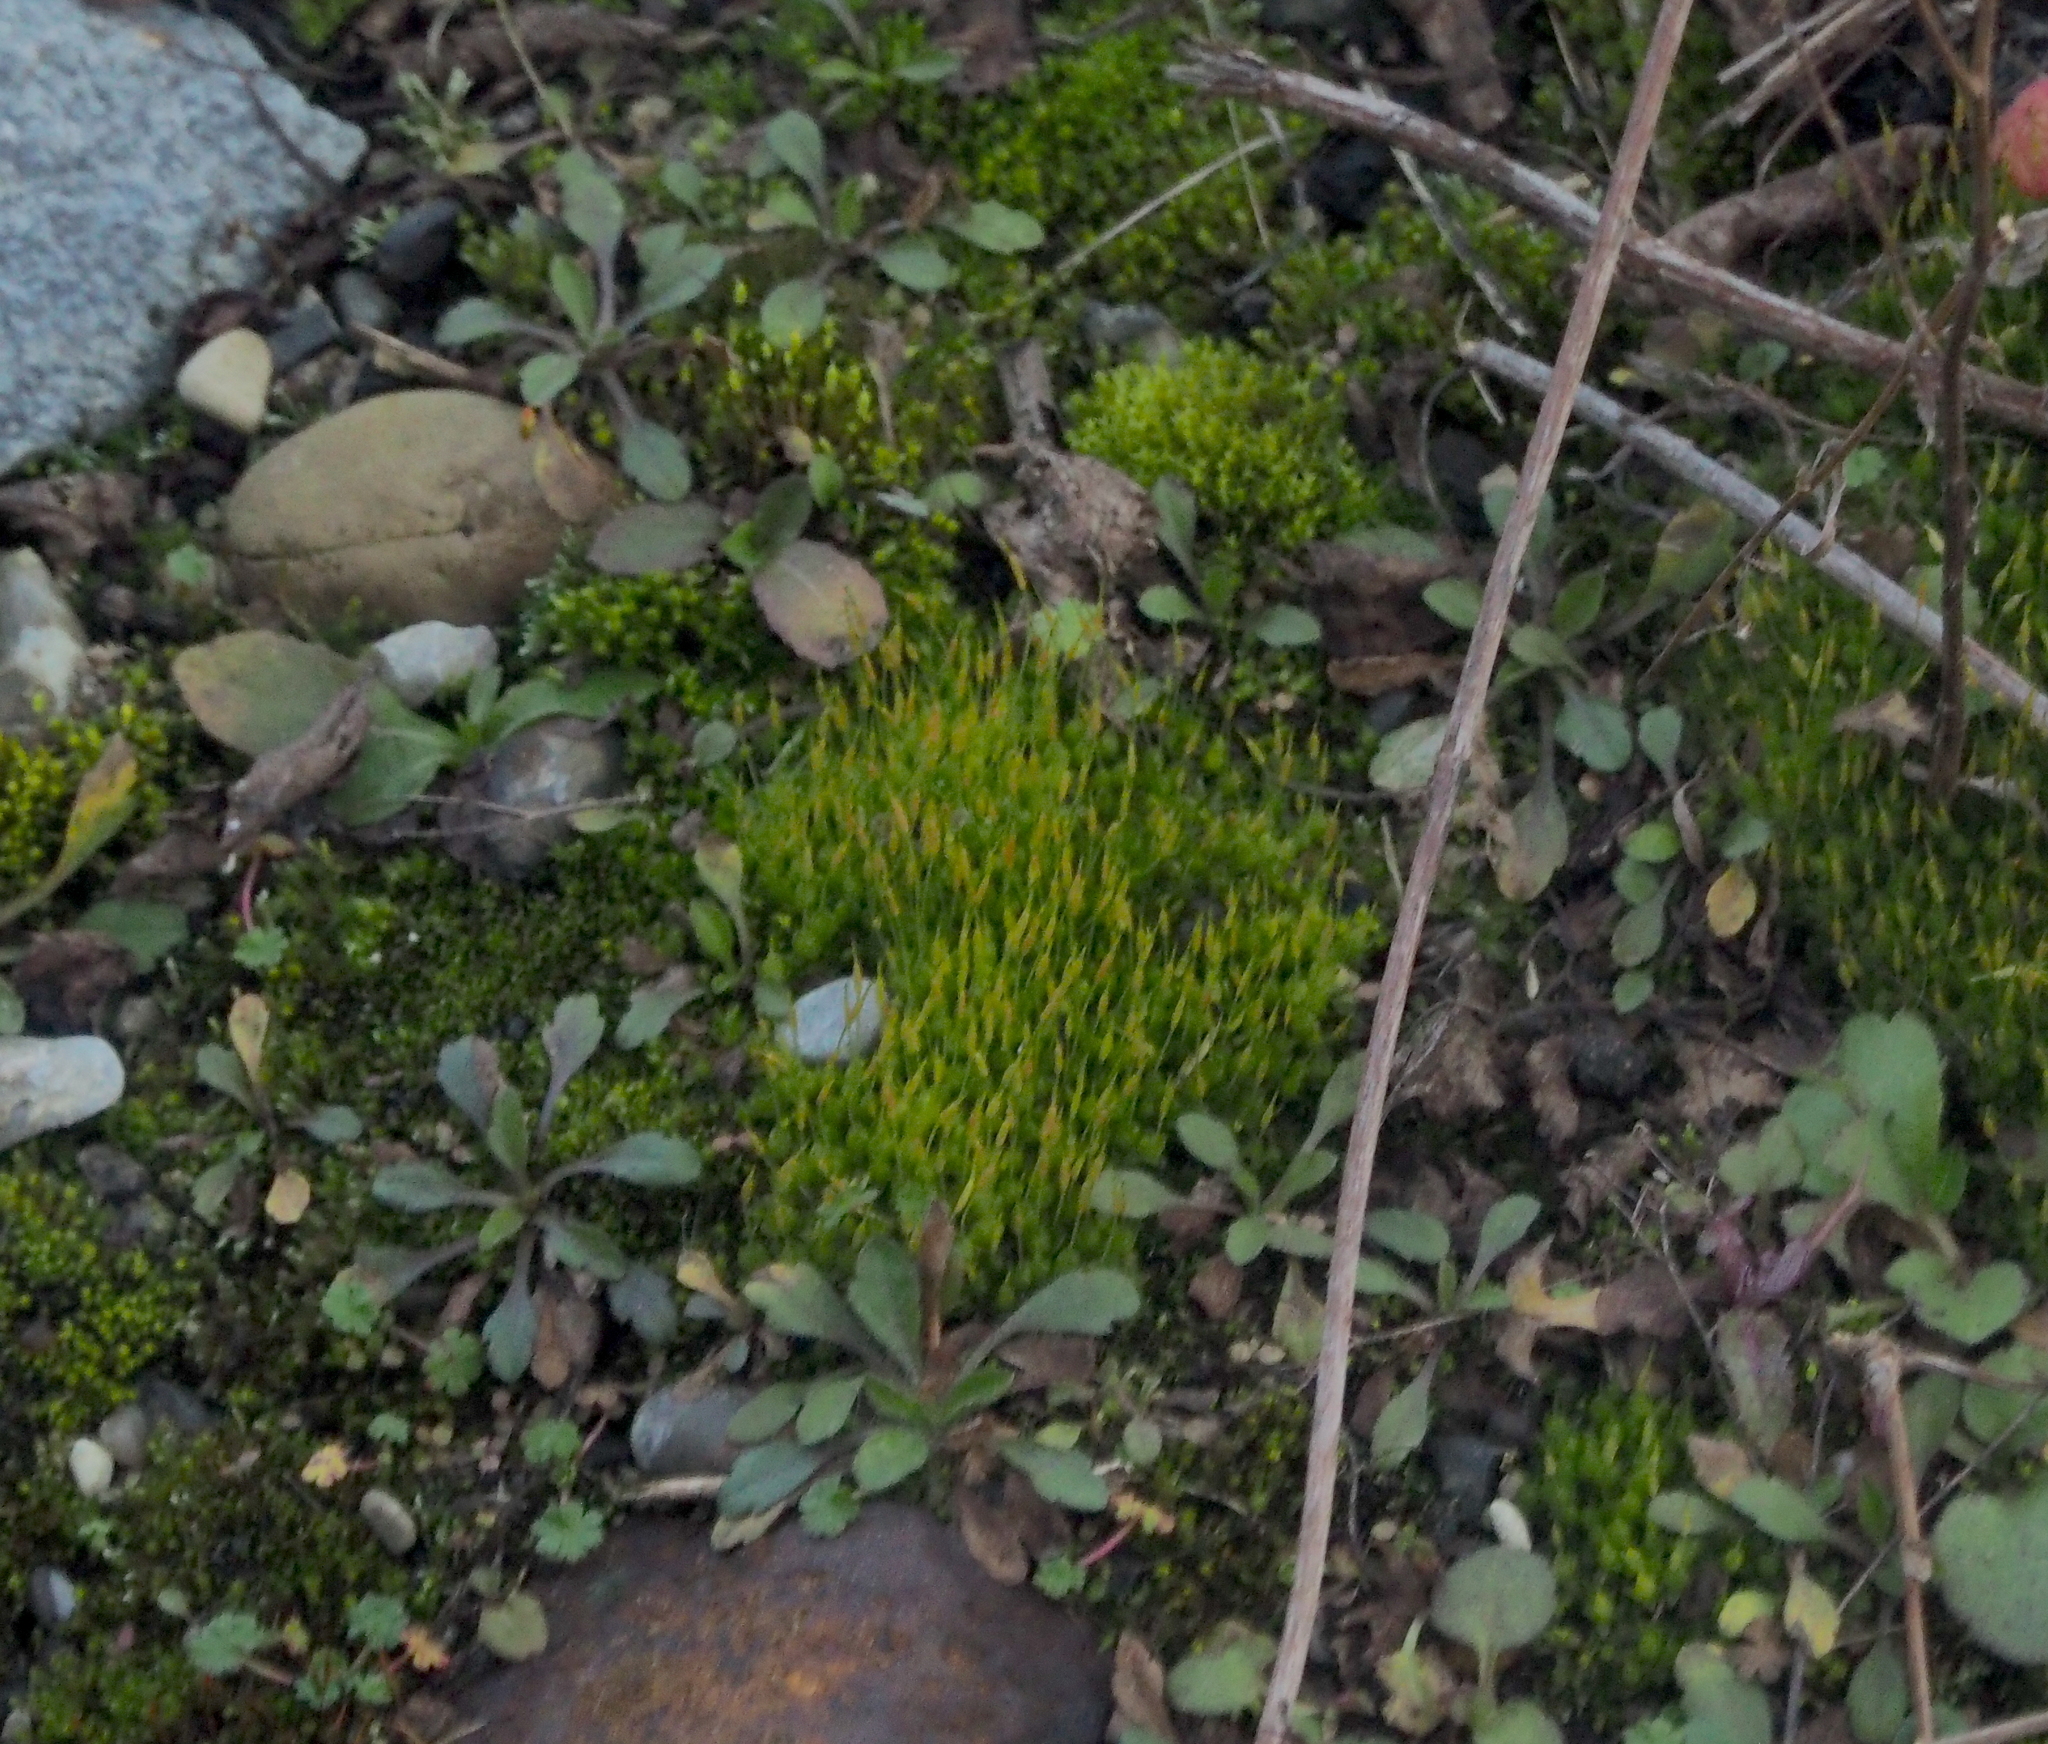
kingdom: Plantae
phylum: Bryophyta
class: Bryopsida
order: Funariales
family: Funariaceae
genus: Funaria
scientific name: Funaria hygrometrica
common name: Common cord moss
